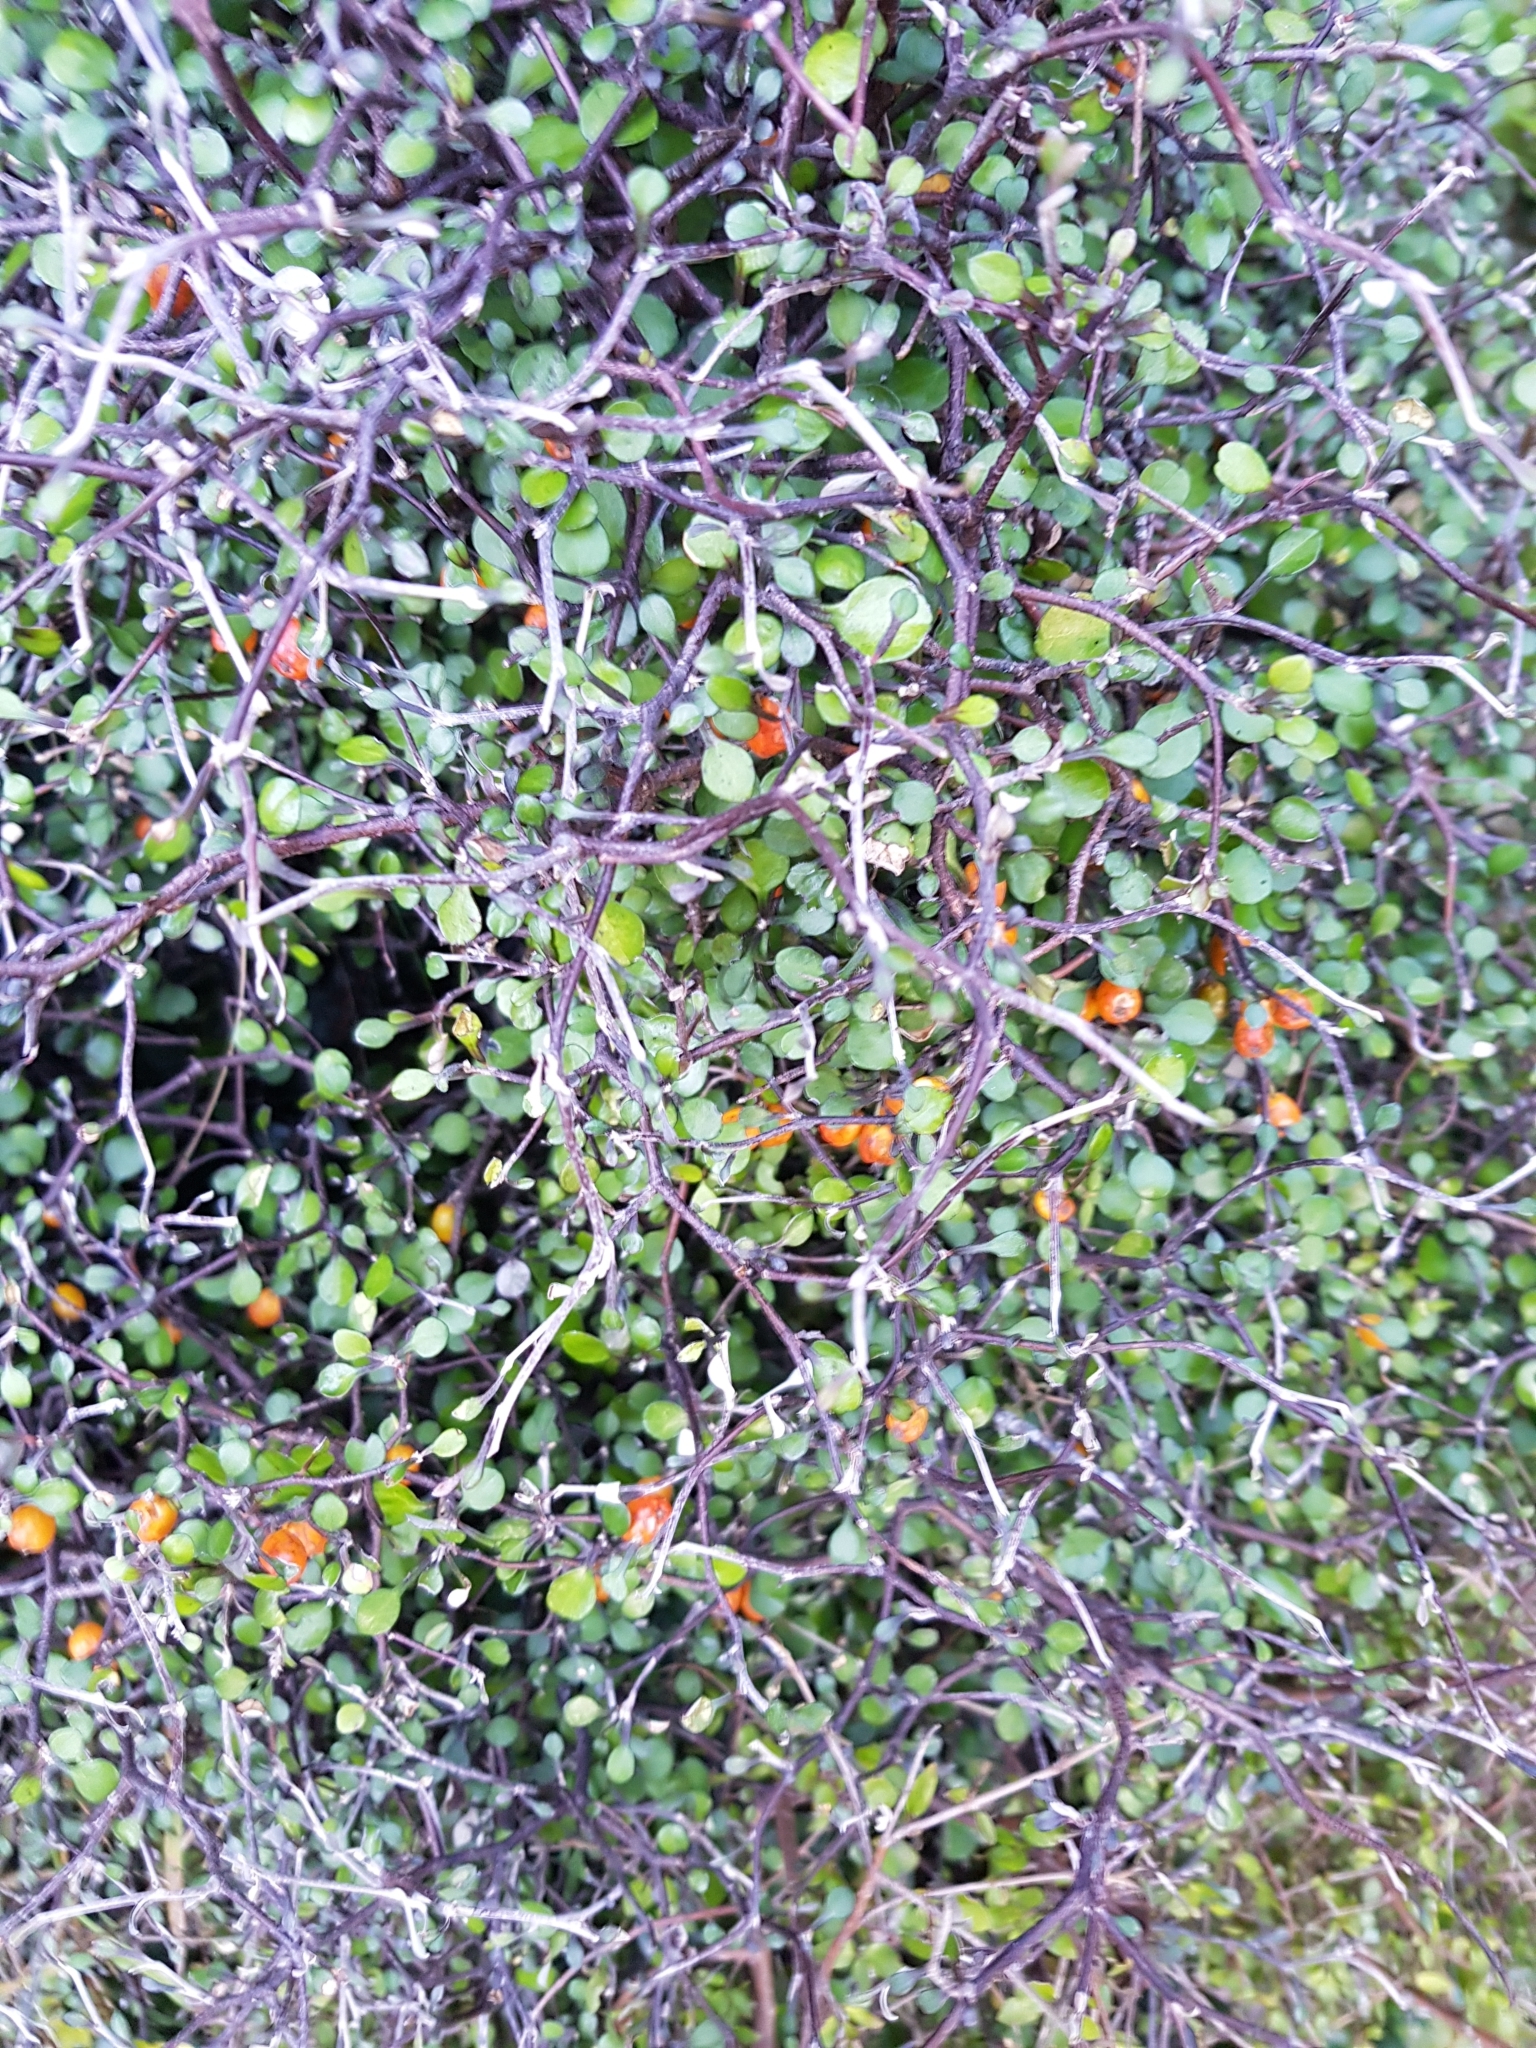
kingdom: Plantae
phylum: Tracheophyta
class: Magnoliopsida
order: Asterales
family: Argophyllaceae
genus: Corokia
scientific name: Corokia cotoneaster
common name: Wire nettingbush
